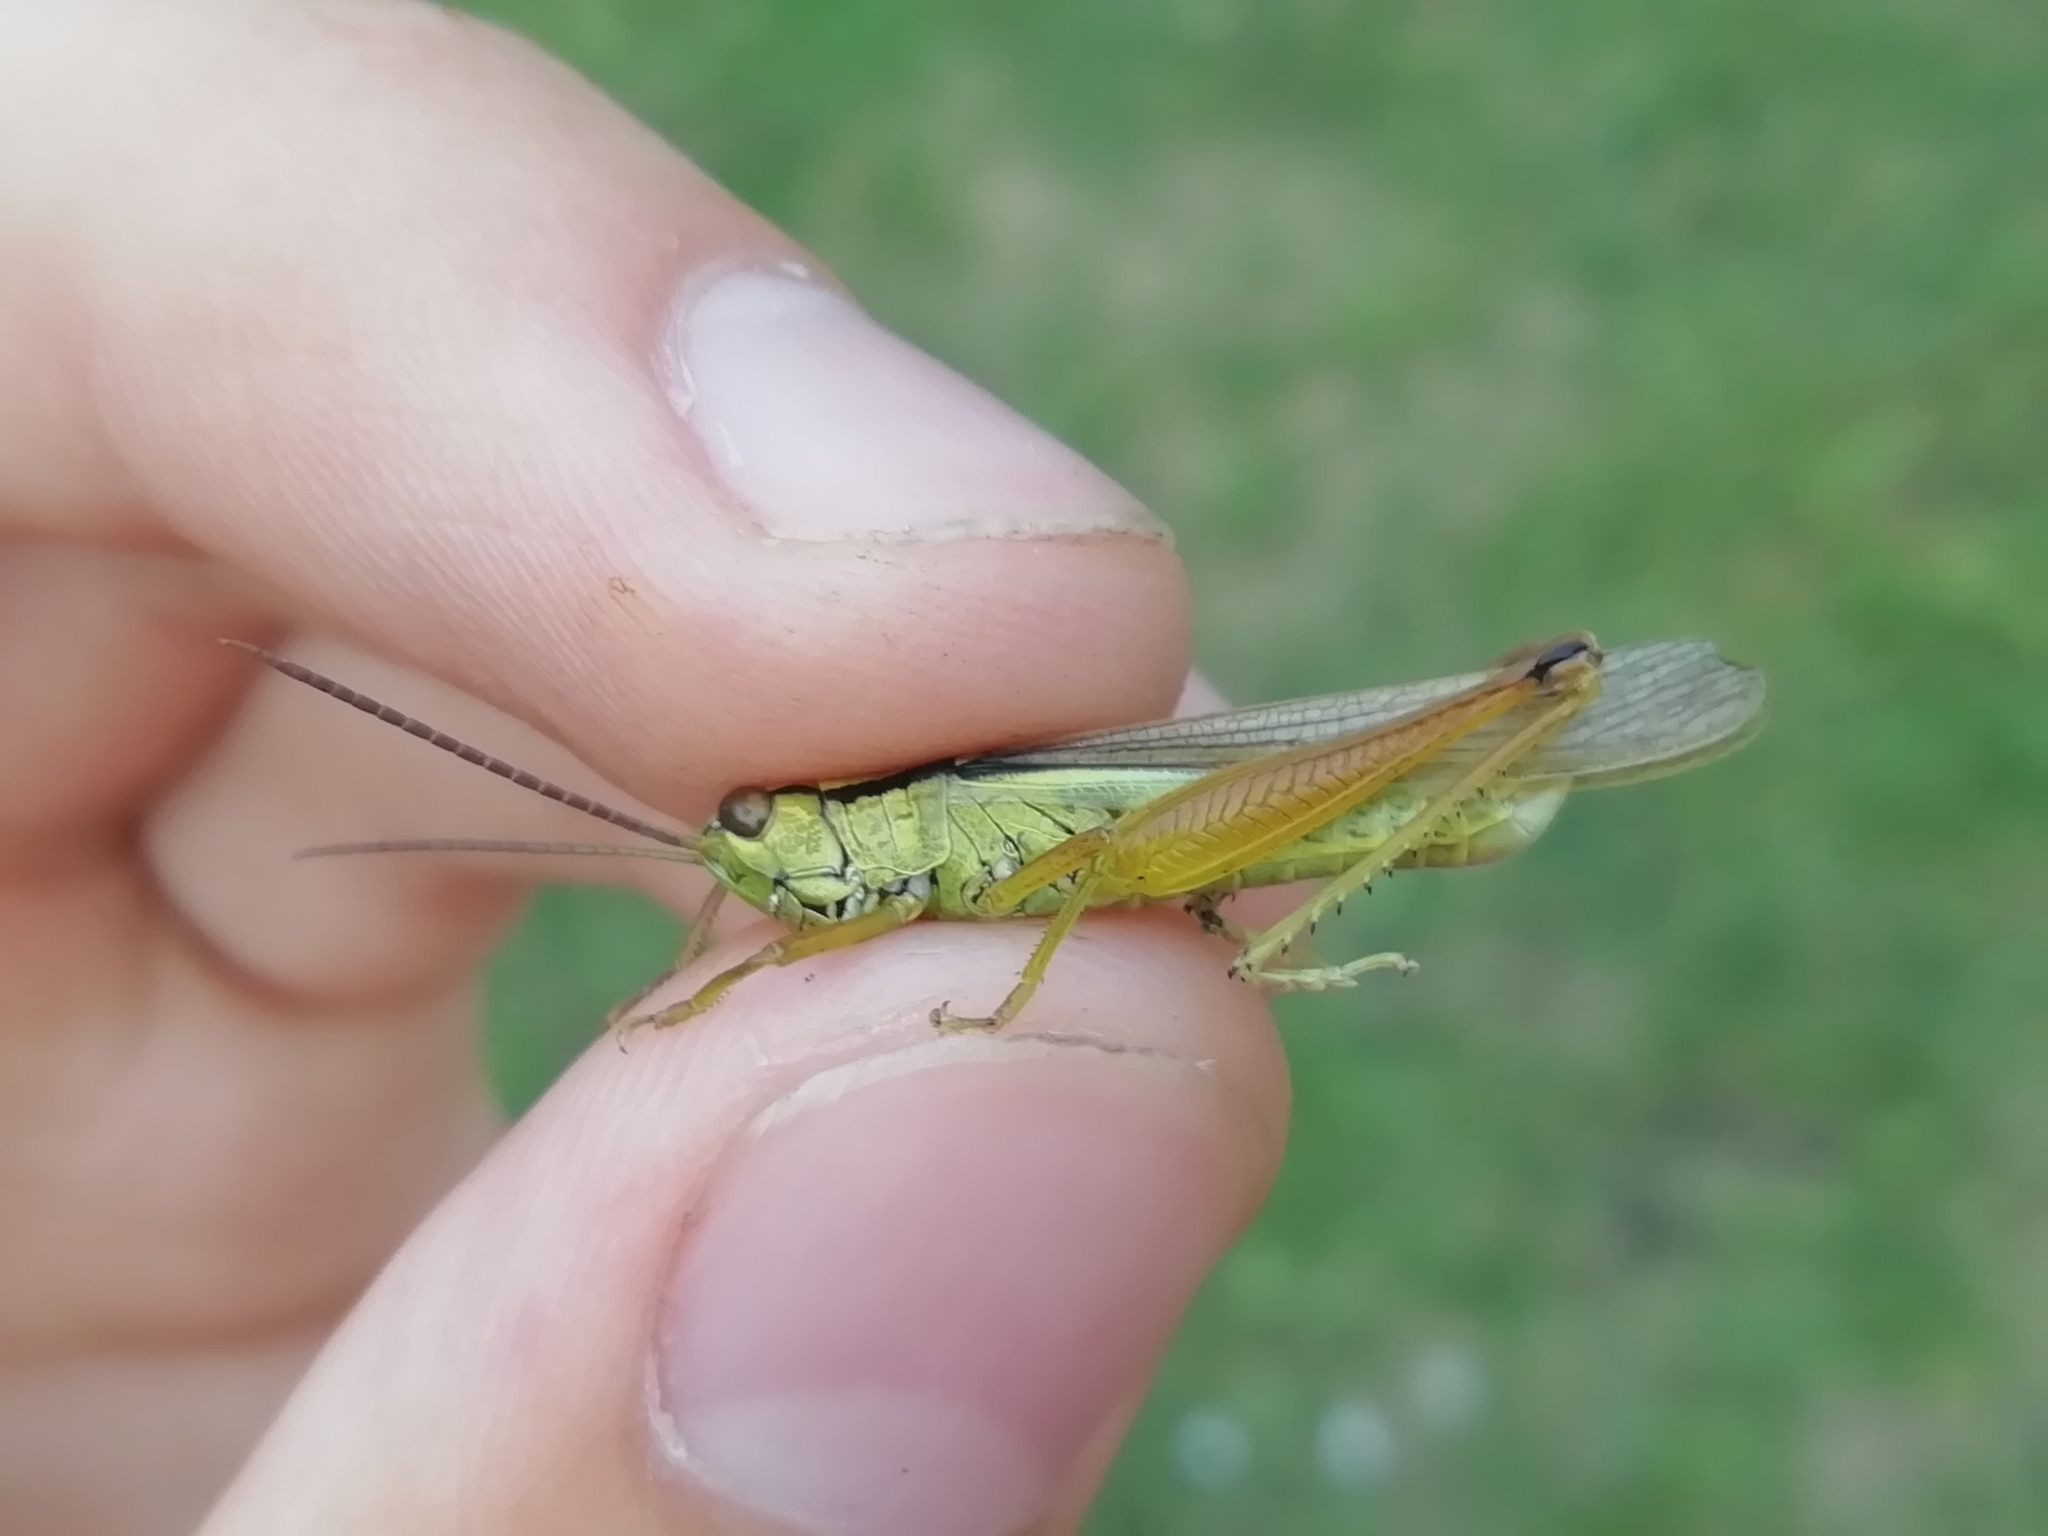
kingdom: Animalia
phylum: Arthropoda
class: Insecta
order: Orthoptera
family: Acrididae
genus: Mecostethus
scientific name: Mecostethus parapleurus
